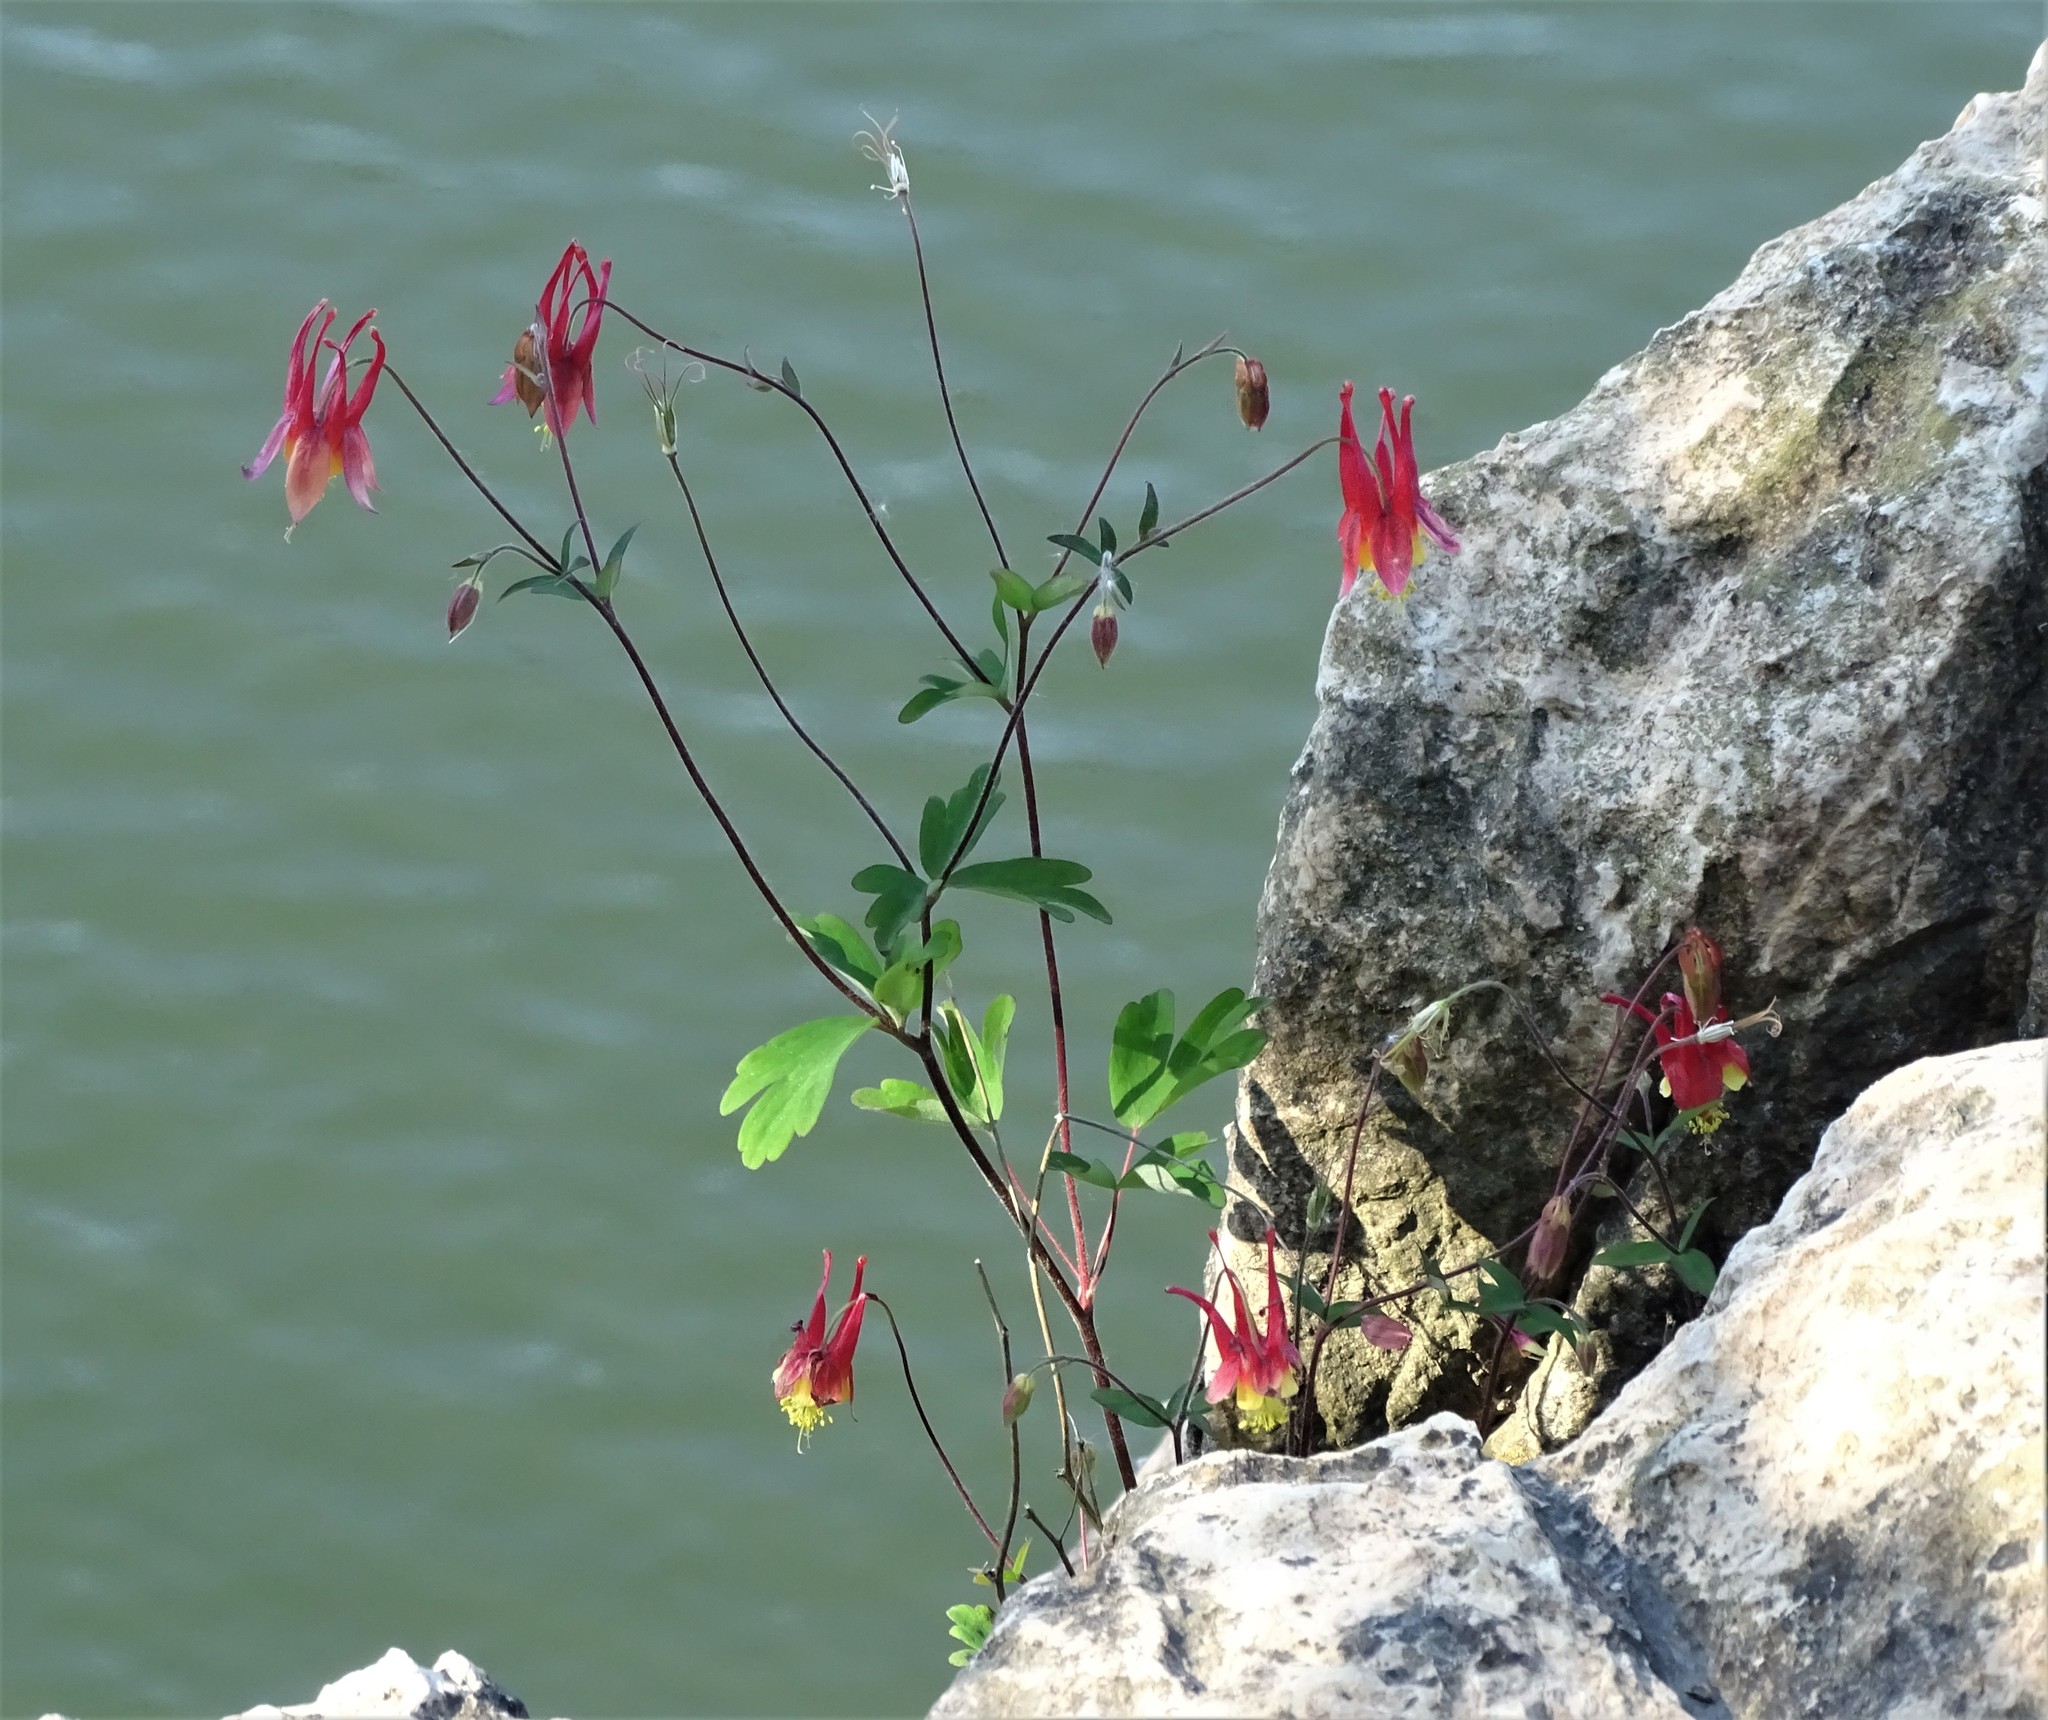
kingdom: Plantae
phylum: Tracheophyta
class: Magnoliopsida
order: Ranunculales
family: Ranunculaceae
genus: Aquilegia
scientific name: Aquilegia canadensis
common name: American columbine
